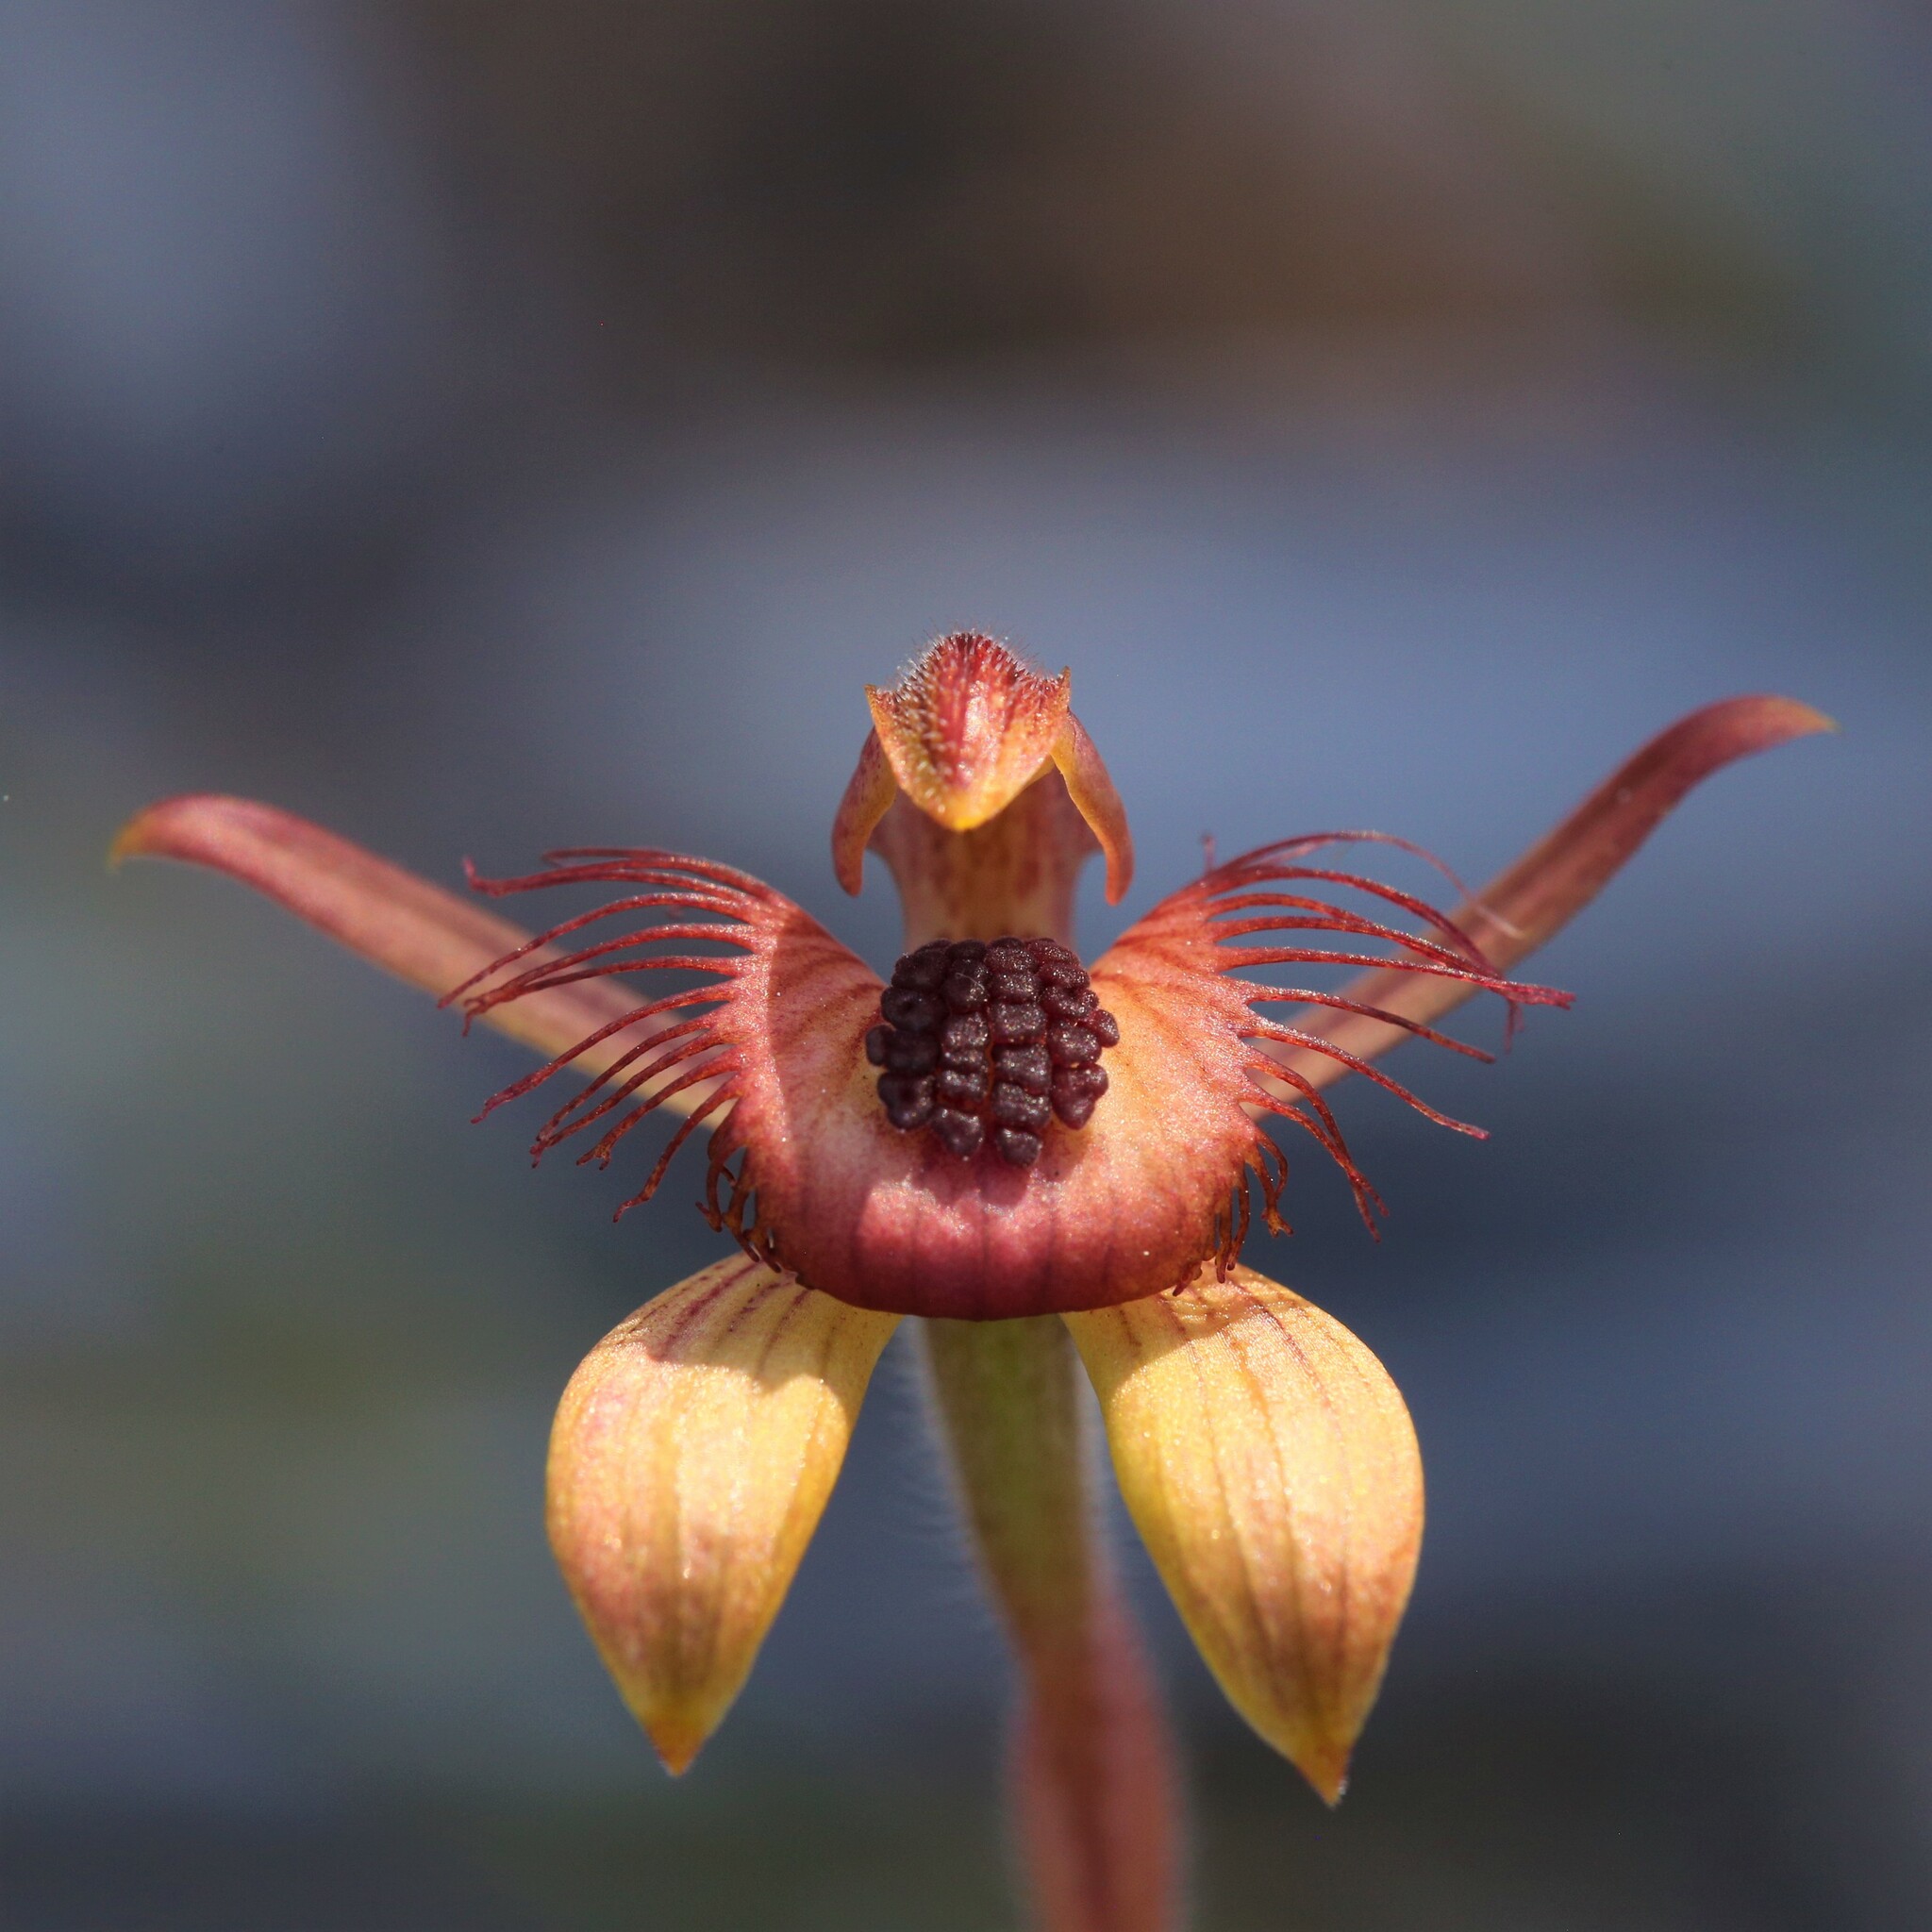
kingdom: Plantae
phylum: Tracheophyta
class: Liliopsida
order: Asparagales
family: Orchidaceae
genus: Caladenia
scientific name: Caladenia discoidea
